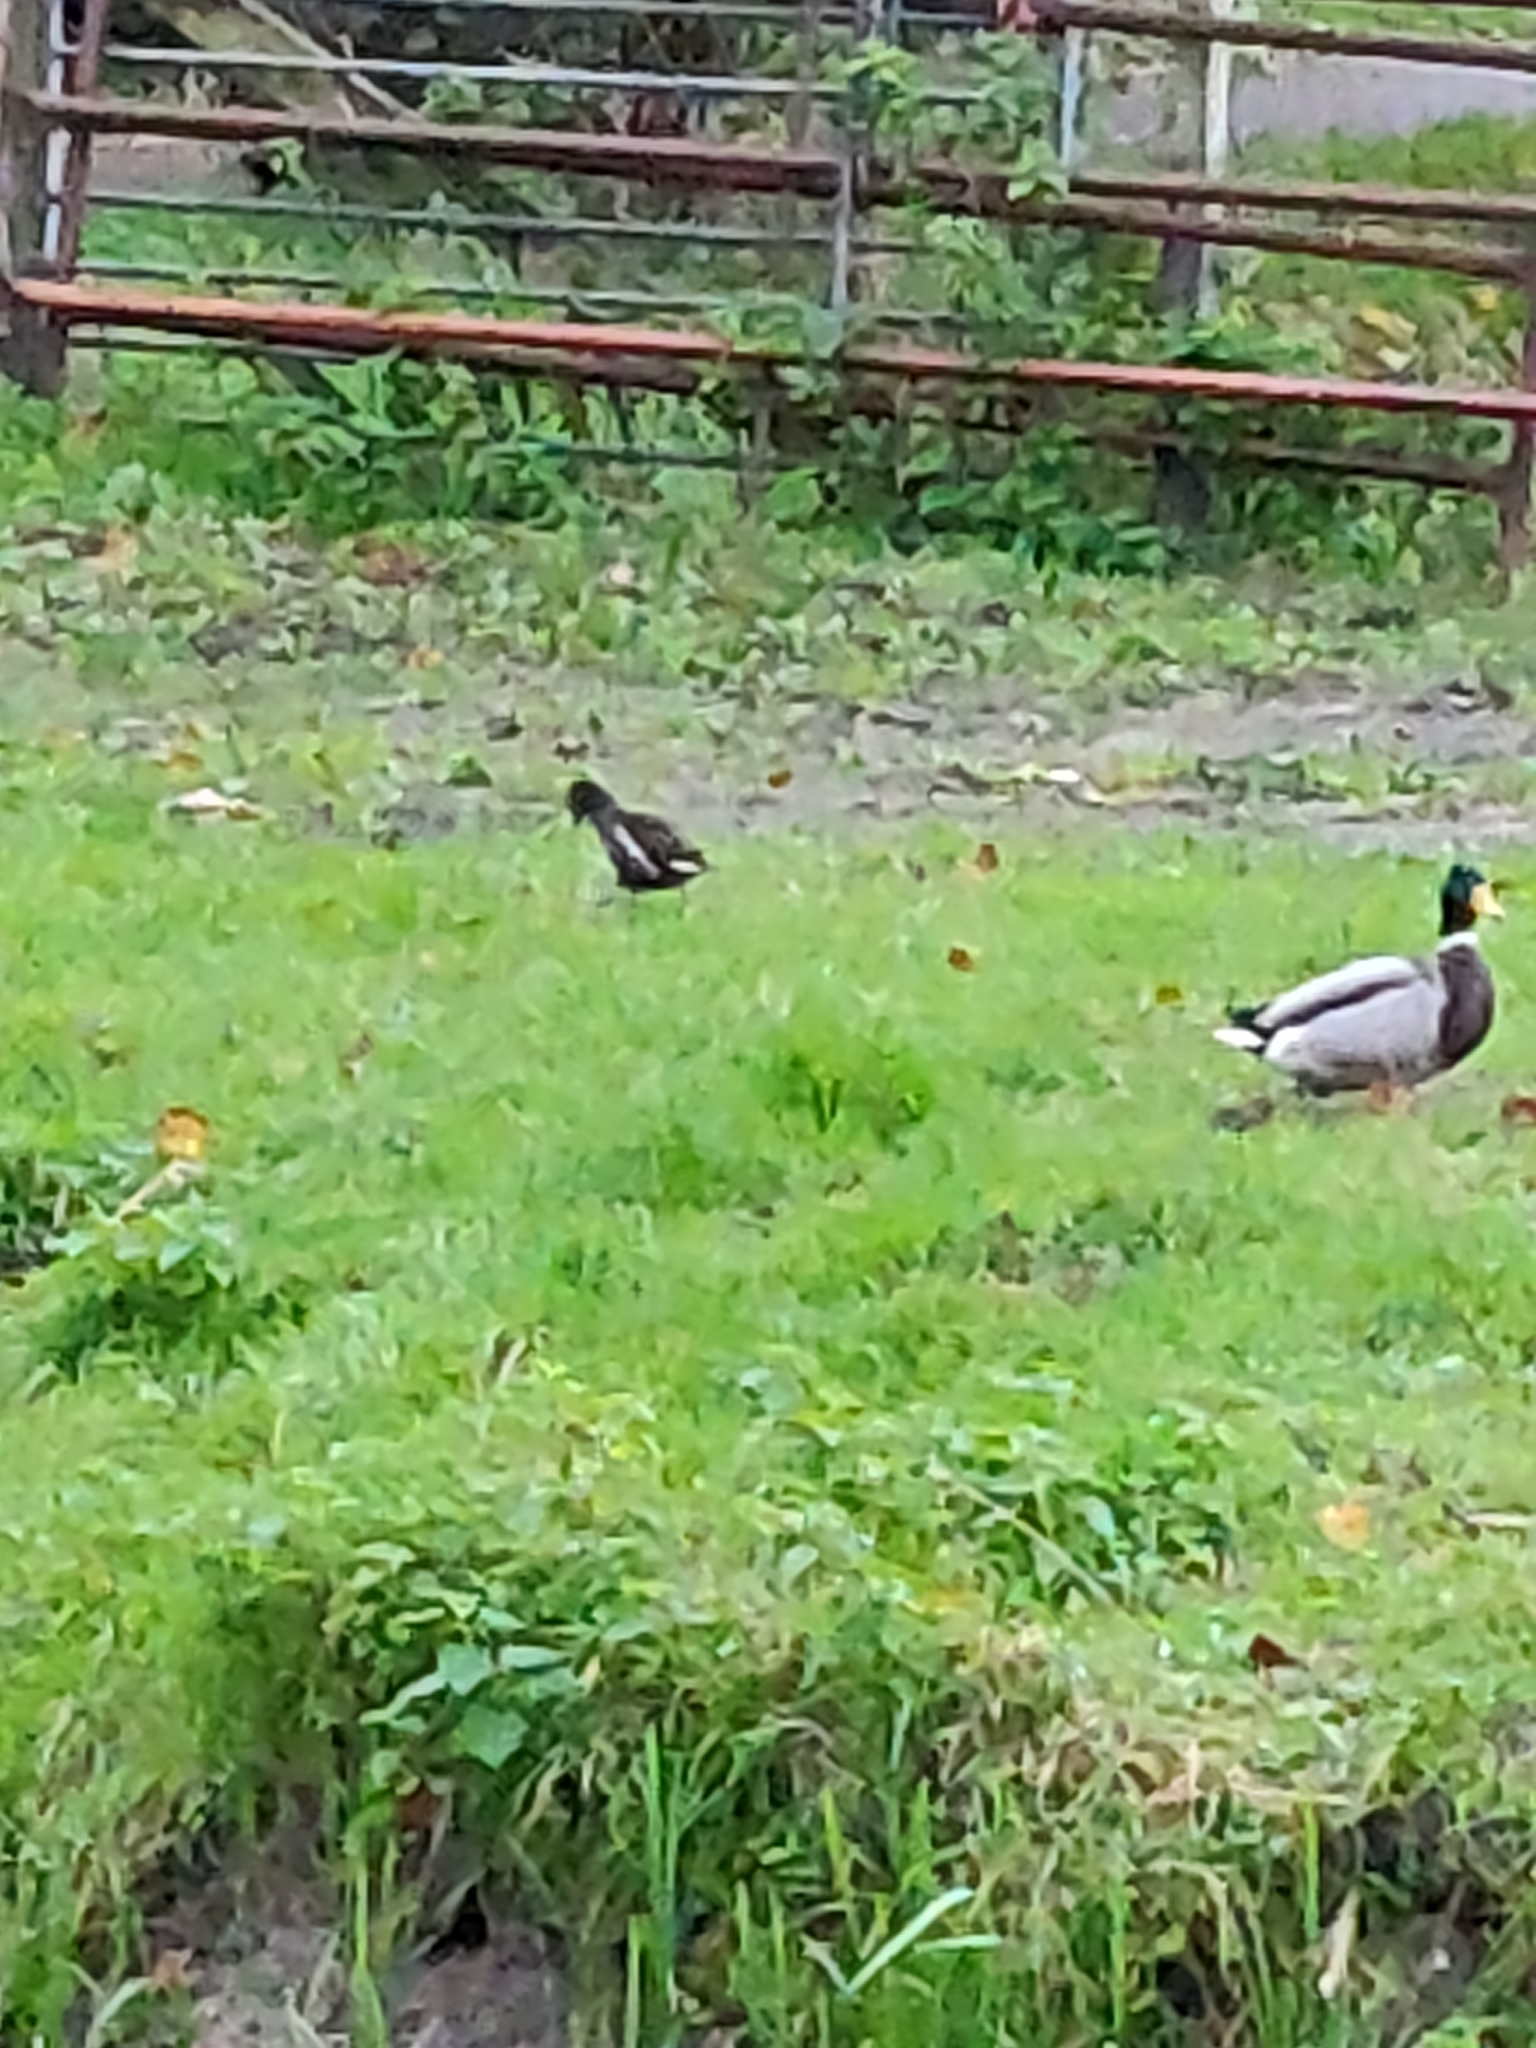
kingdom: Animalia
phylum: Chordata
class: Aves
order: Gruiformes
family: Rallidae
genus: Gallinula
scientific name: Gallinula chloropus
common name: Common moorhen
